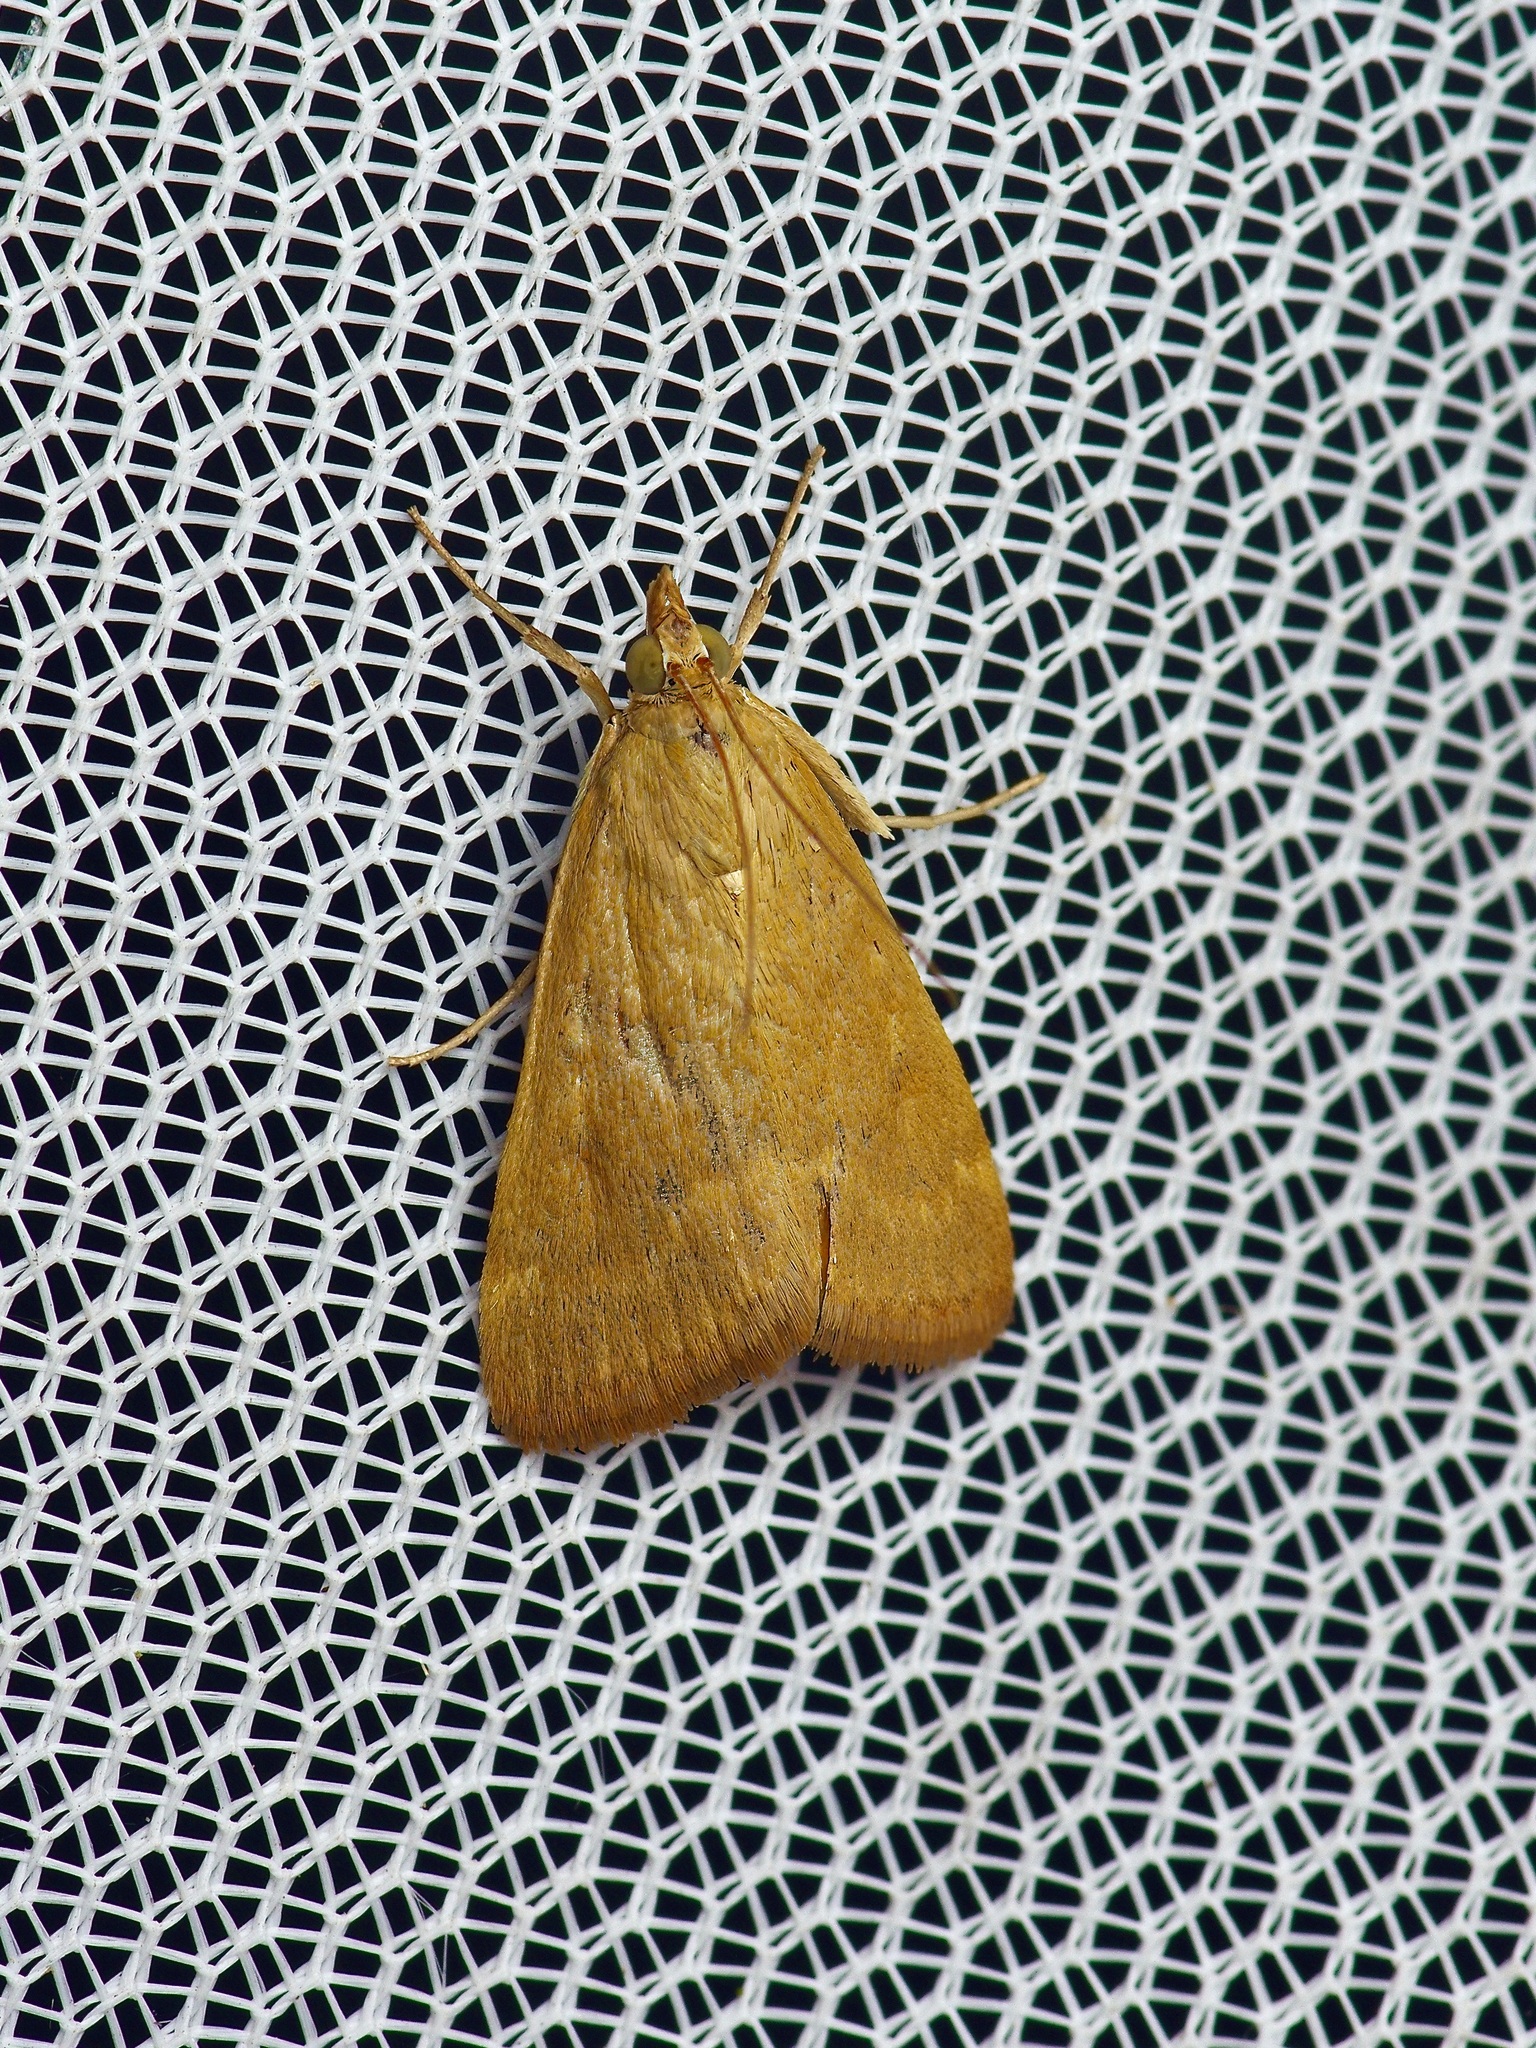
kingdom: Animalia
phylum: Arthropoda
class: Insecta
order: Lepidoptera
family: Crambidae
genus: Achyra
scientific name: Achyra rantalis
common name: Garden webworm
